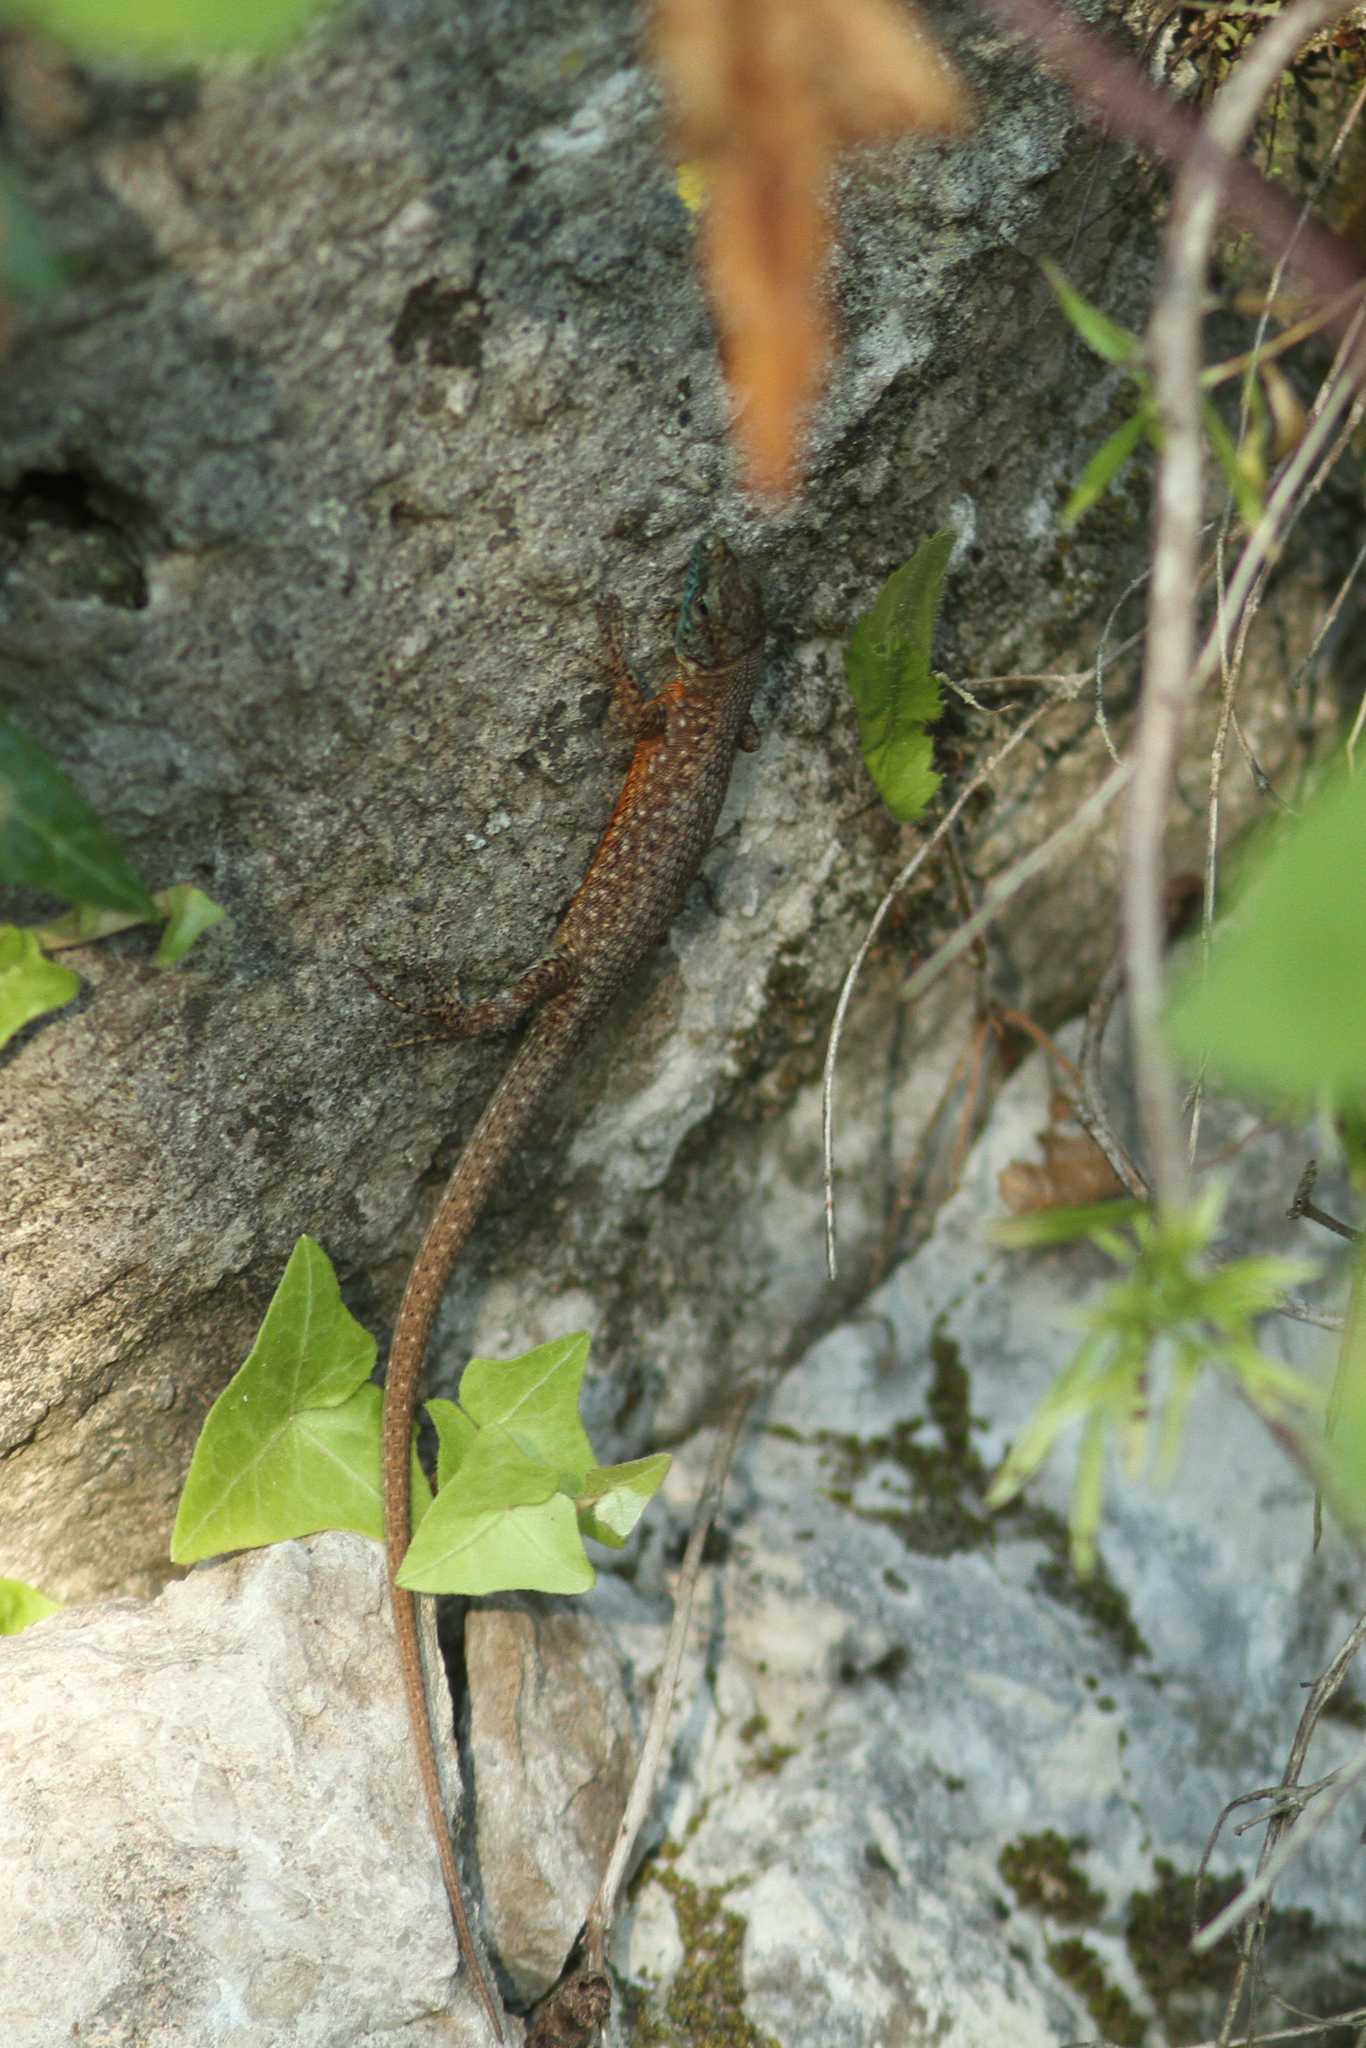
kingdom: Animalia
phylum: Chordata
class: Squamata
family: Lacertidae
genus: Algyroides
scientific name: Algyroides nigropunctatus
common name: Blue-throated keeled lizard
